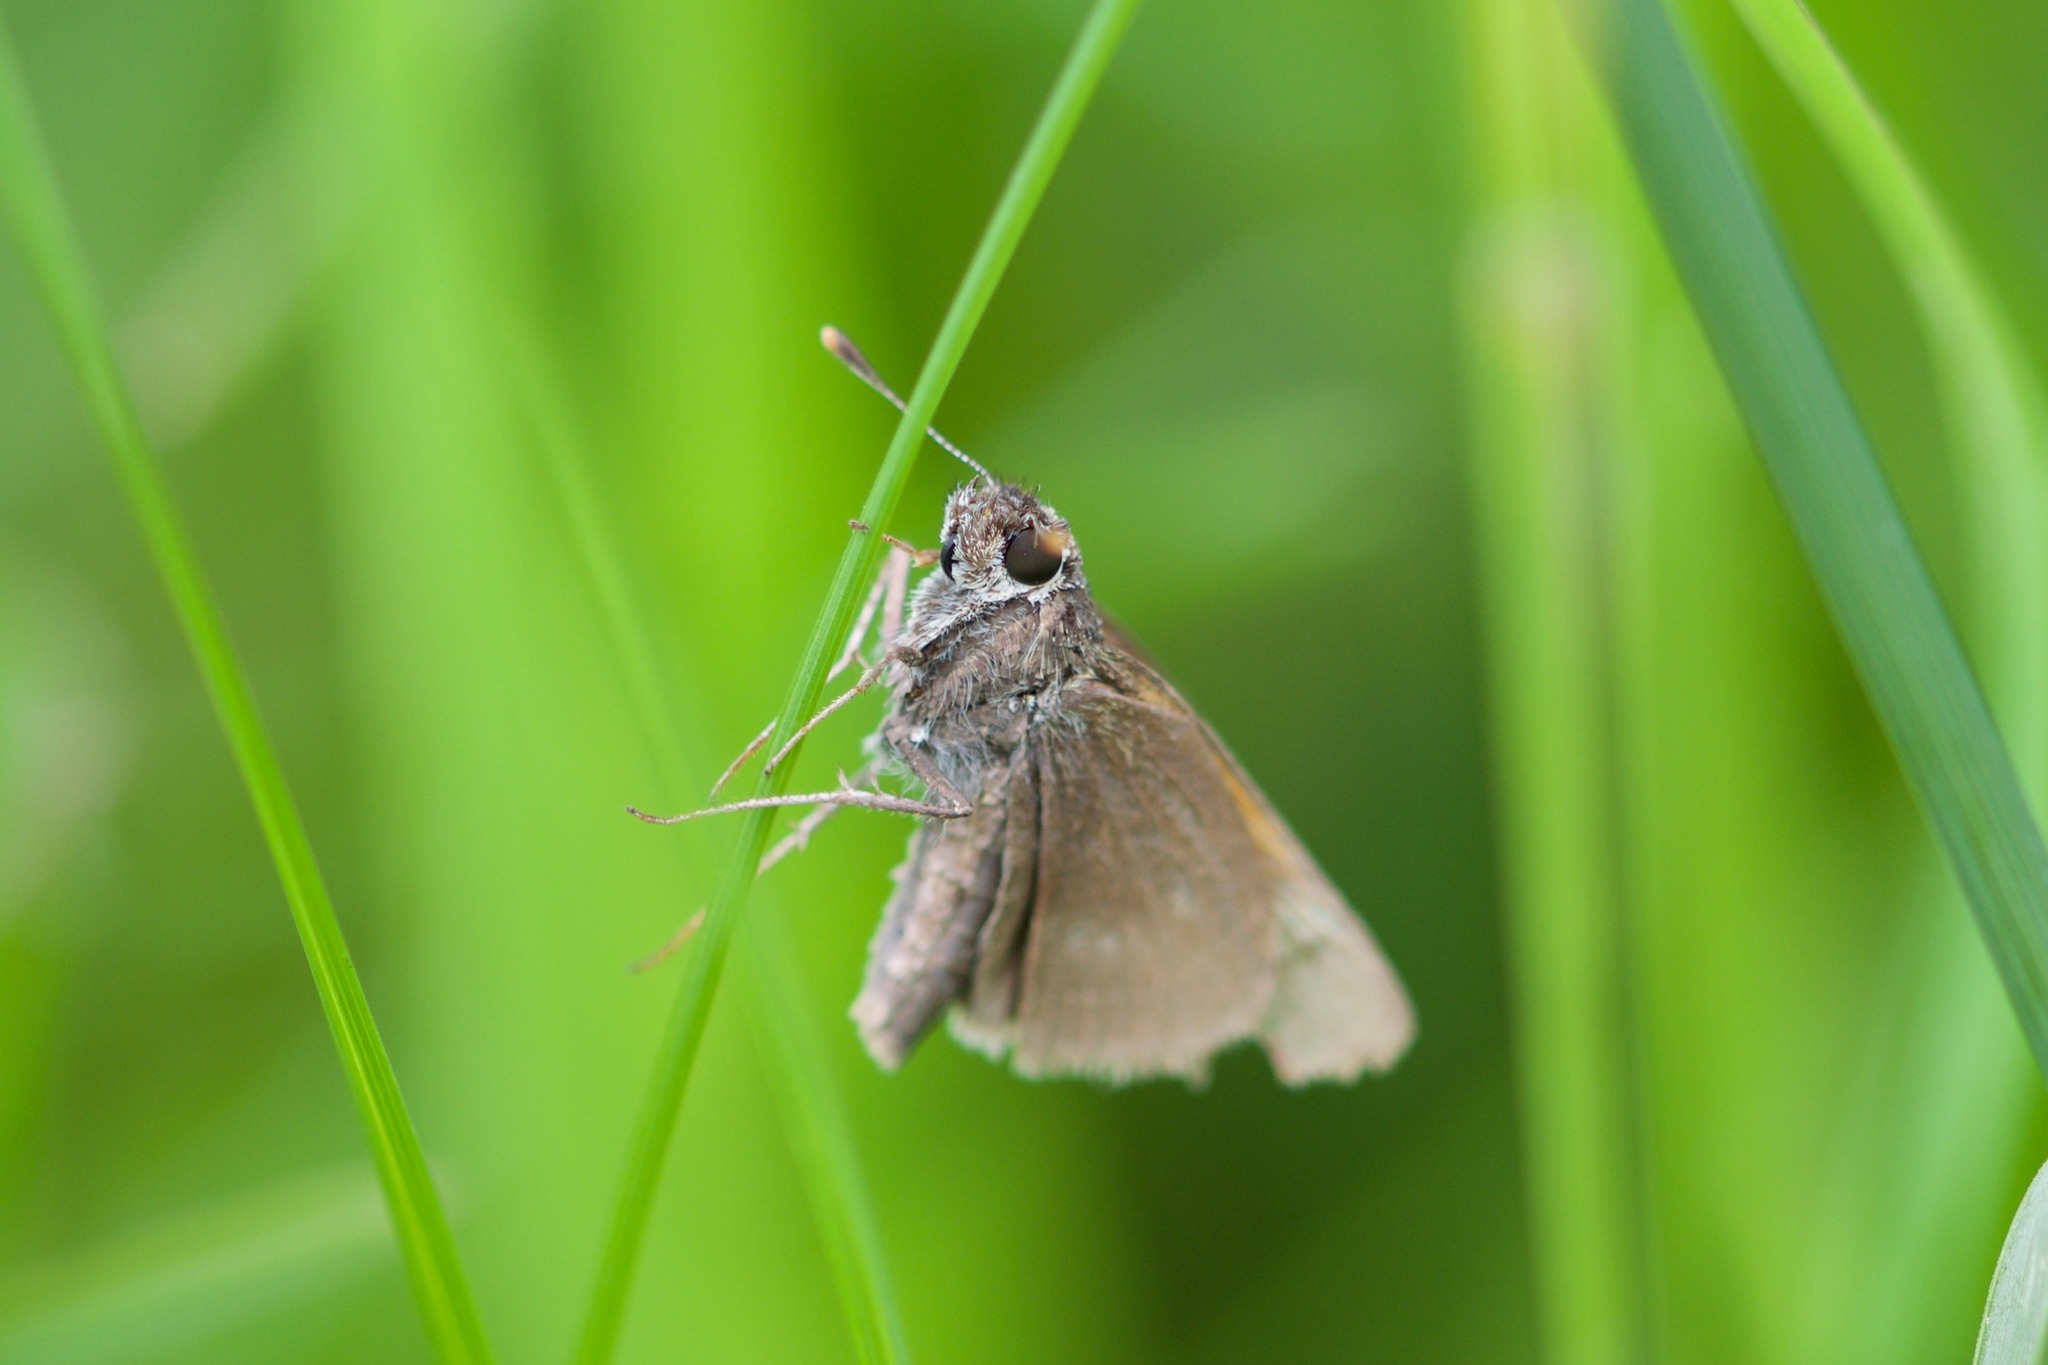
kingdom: Animalia
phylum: Arthropoda
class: Insecta
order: Lepidoptera
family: Hesperiidae
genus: Polites
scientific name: Polites themistocles
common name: Tawny-edged skipper
